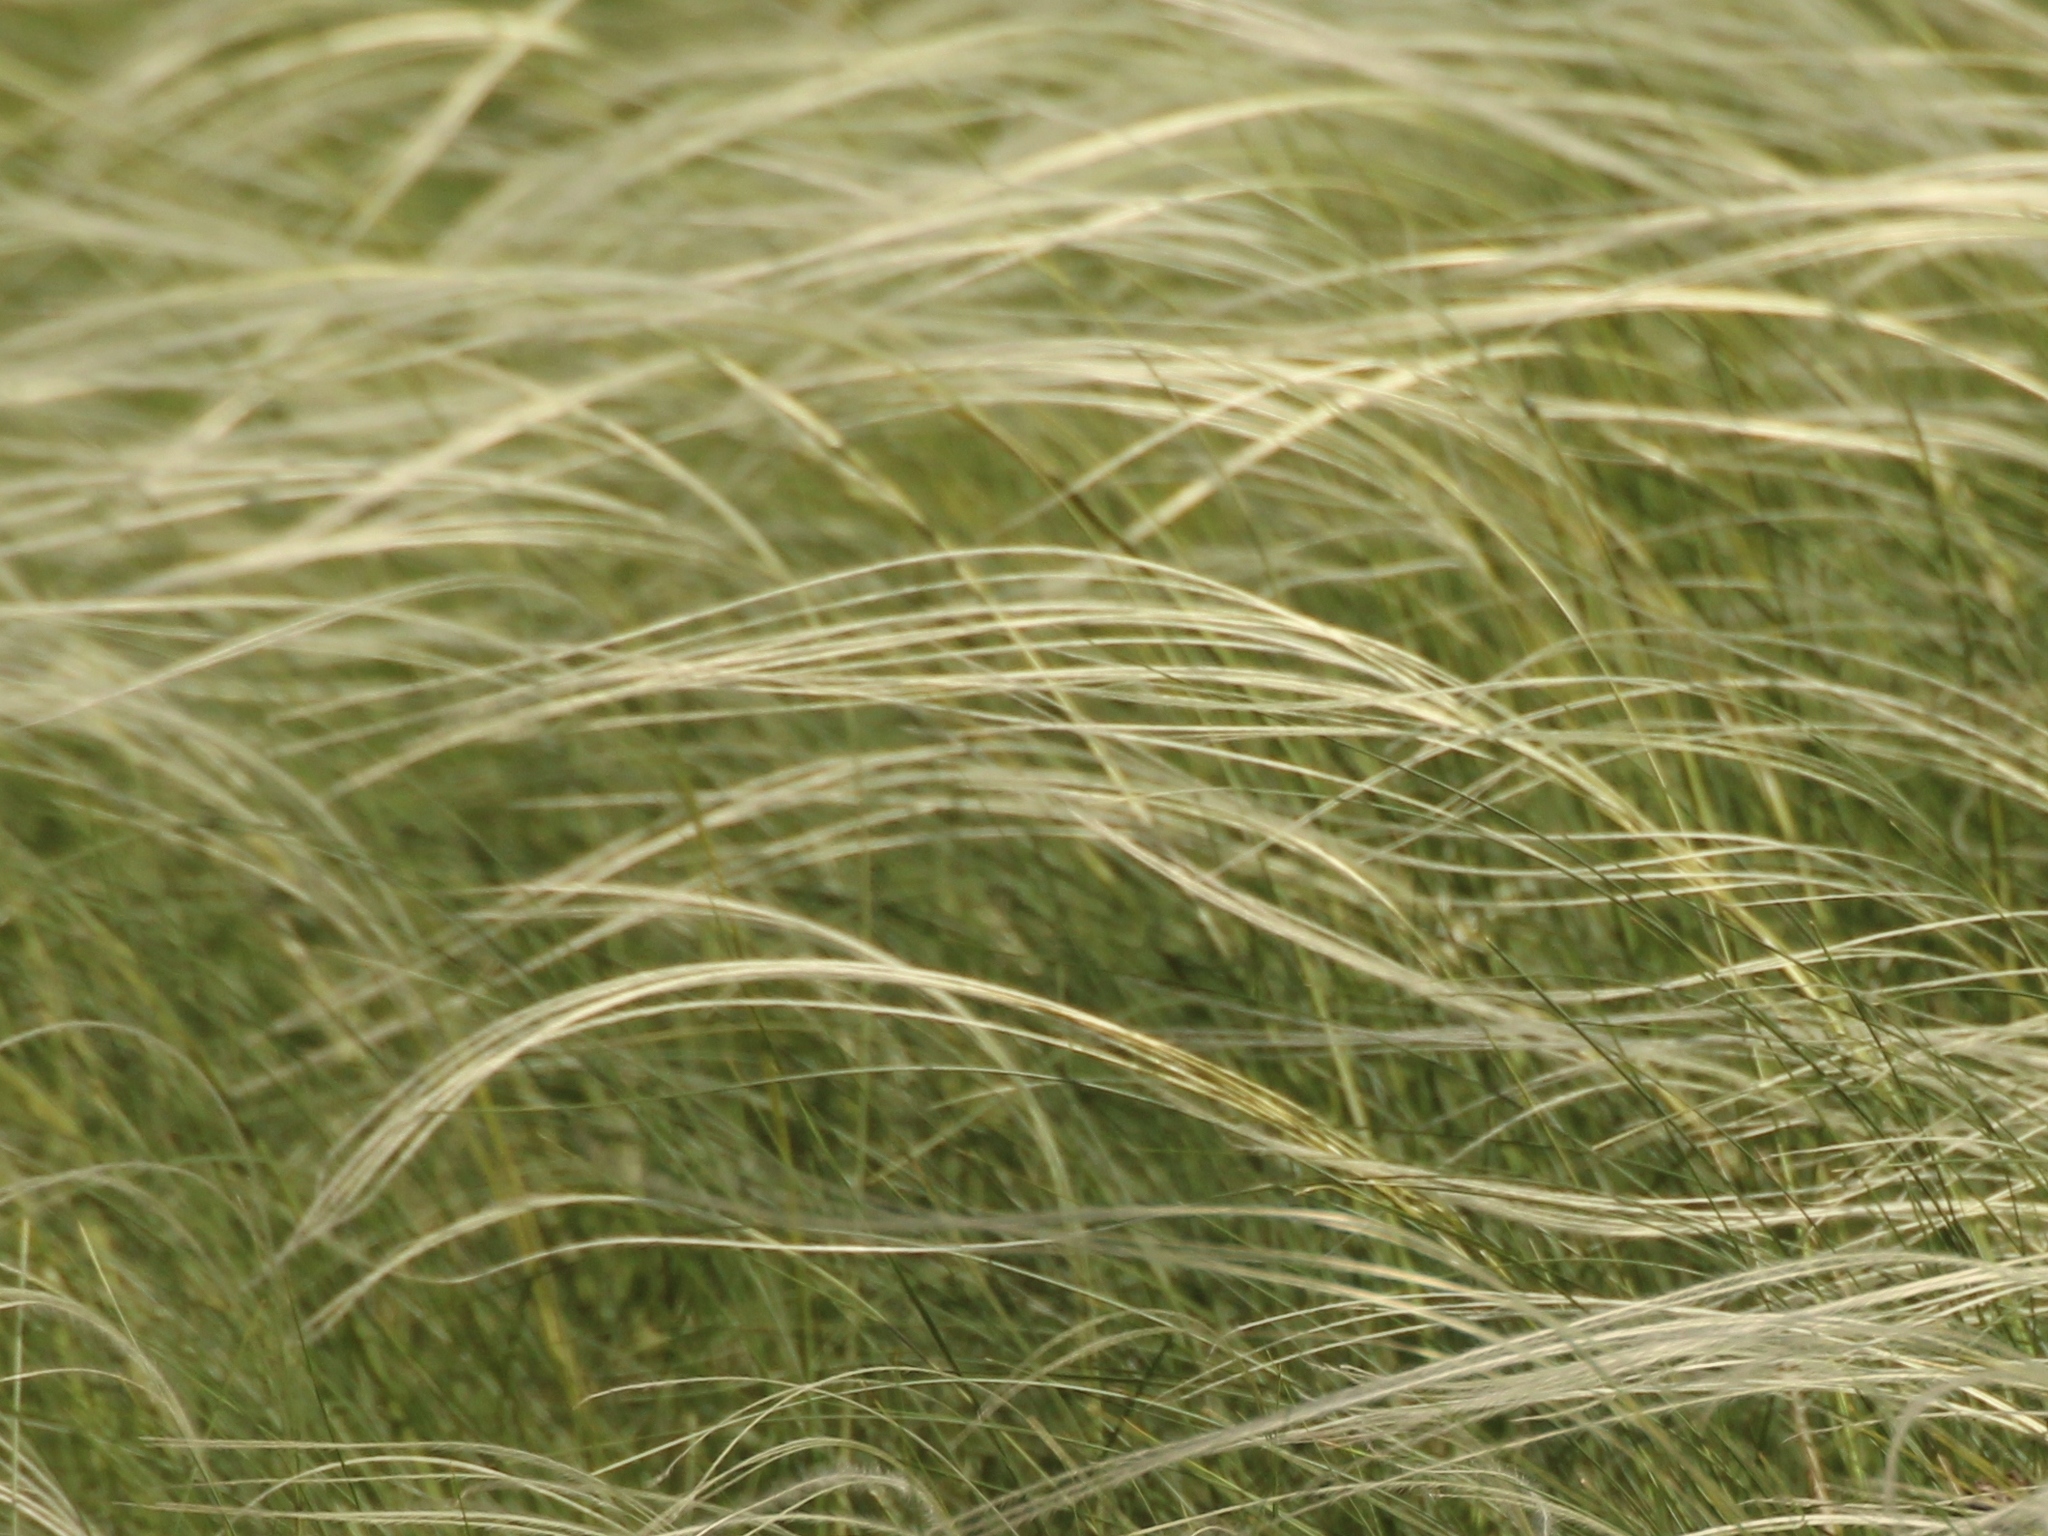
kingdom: Plantae
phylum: Tracheophyta
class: Liliopsida
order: Poales
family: Poaceae
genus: Stipa
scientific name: Stipa pennata
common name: European feather grass
